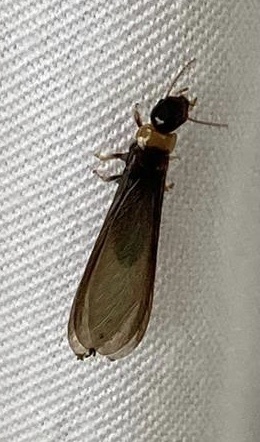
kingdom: Animalia
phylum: Arthropoda
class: Insecta
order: Blattodea
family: Kalotermitidae
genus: Kalotermes
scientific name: Kalotermes flavicollis
